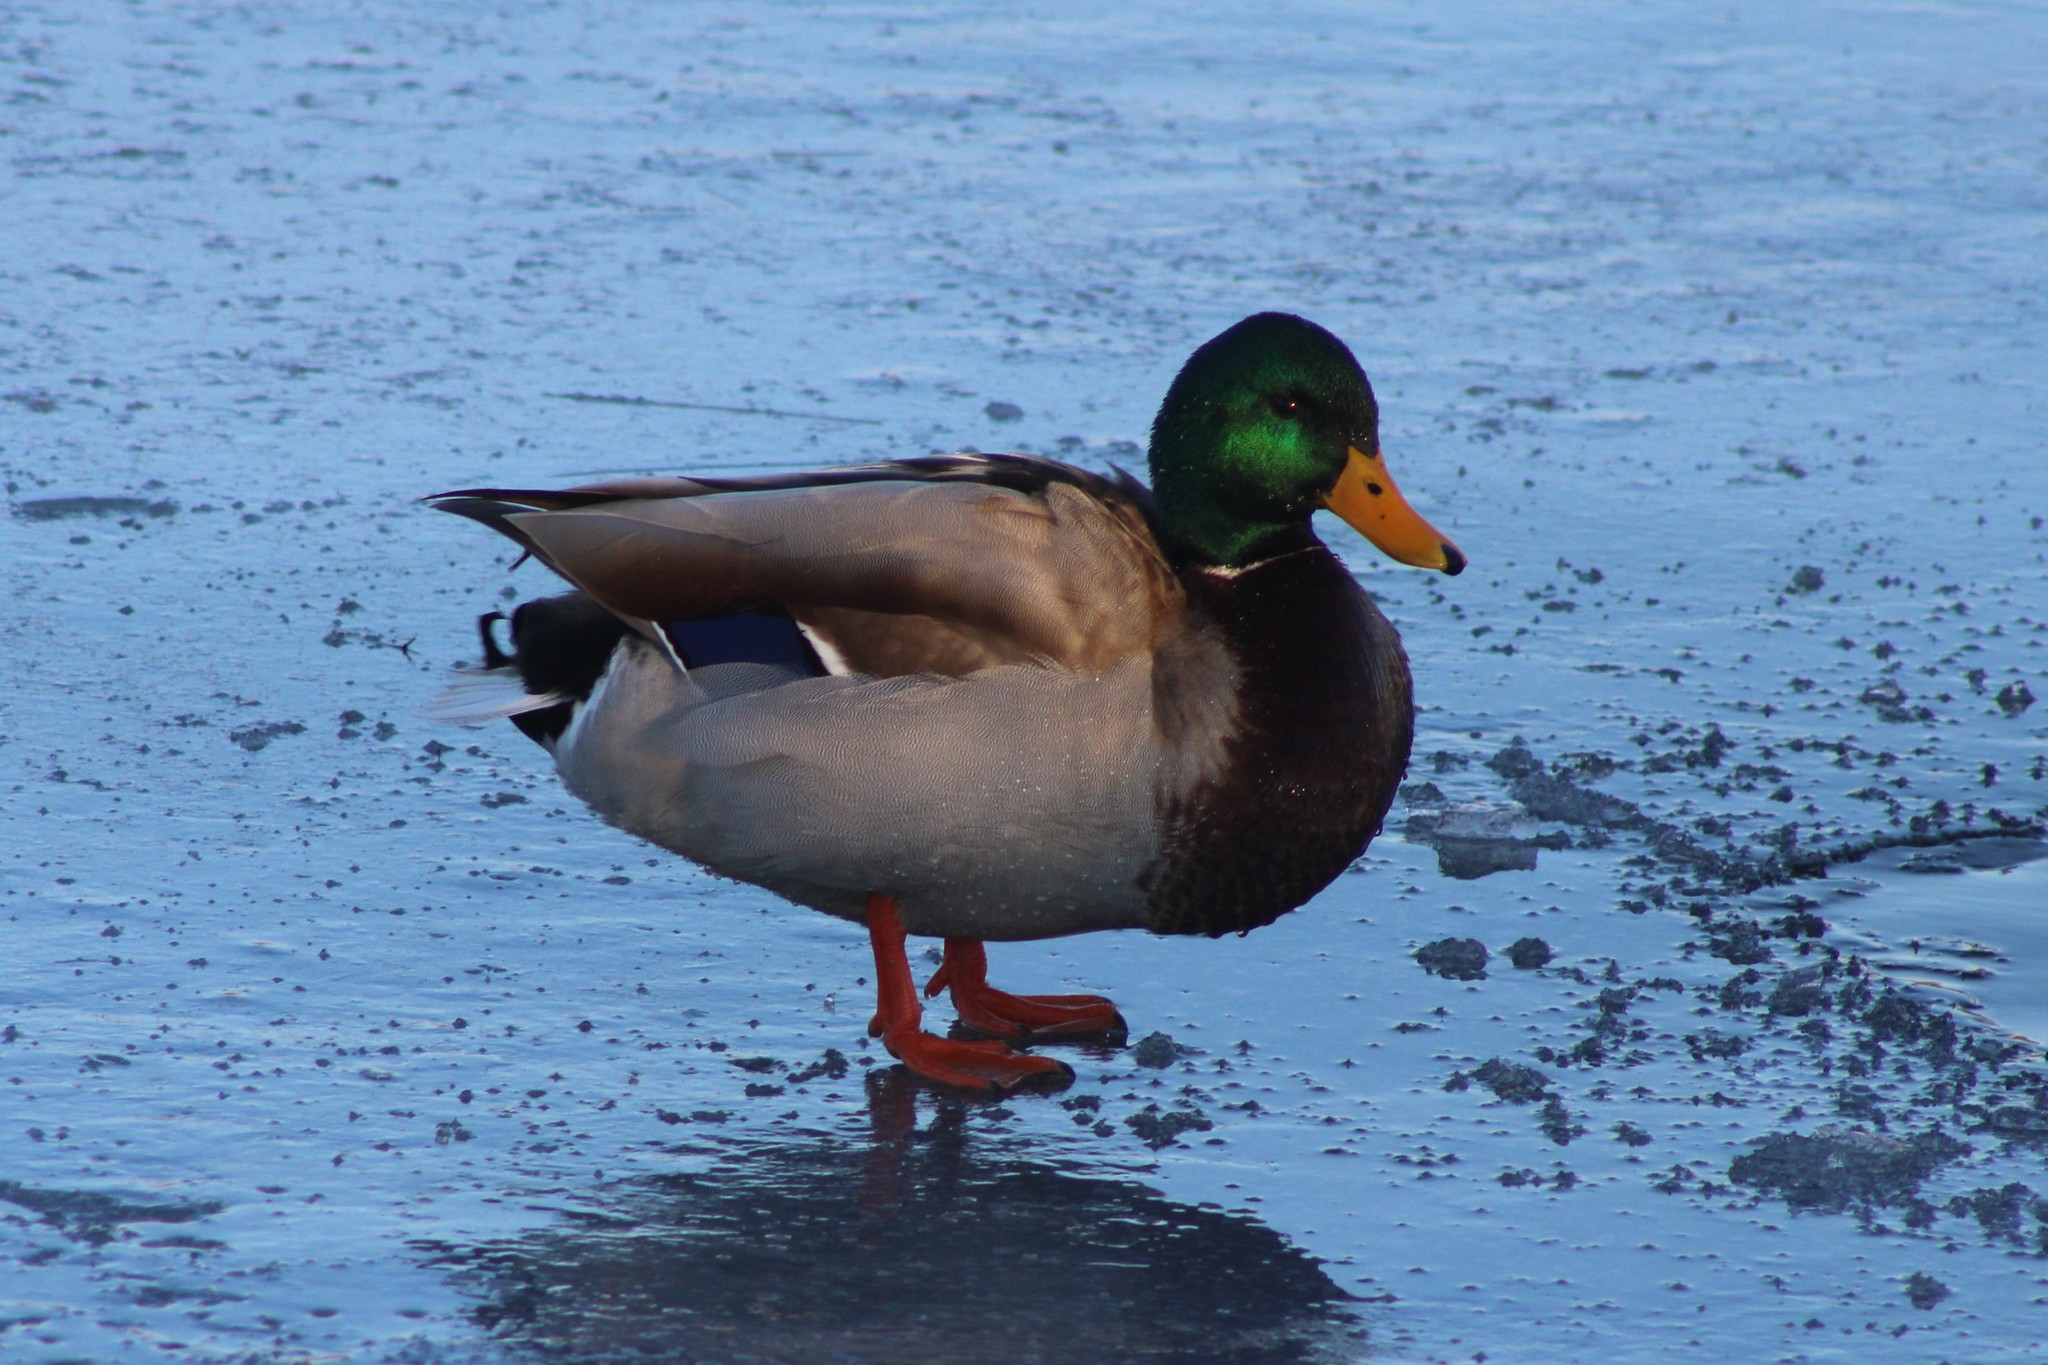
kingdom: Animalia
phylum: Chordata
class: Aves
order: Anseriformes
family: Anatidae
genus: Anas
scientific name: Anas platyrhynchos
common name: Mallard
